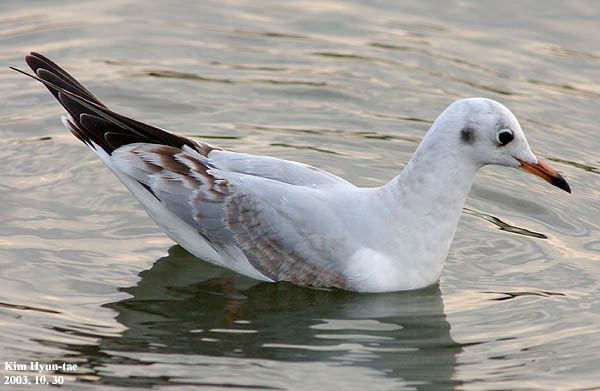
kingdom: Animalia
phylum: Chordata
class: Aves
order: Charadriiformes
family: Laridae
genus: Chroicocephalus
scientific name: Chroicocephalus ridibundus
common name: Black-headed gull
